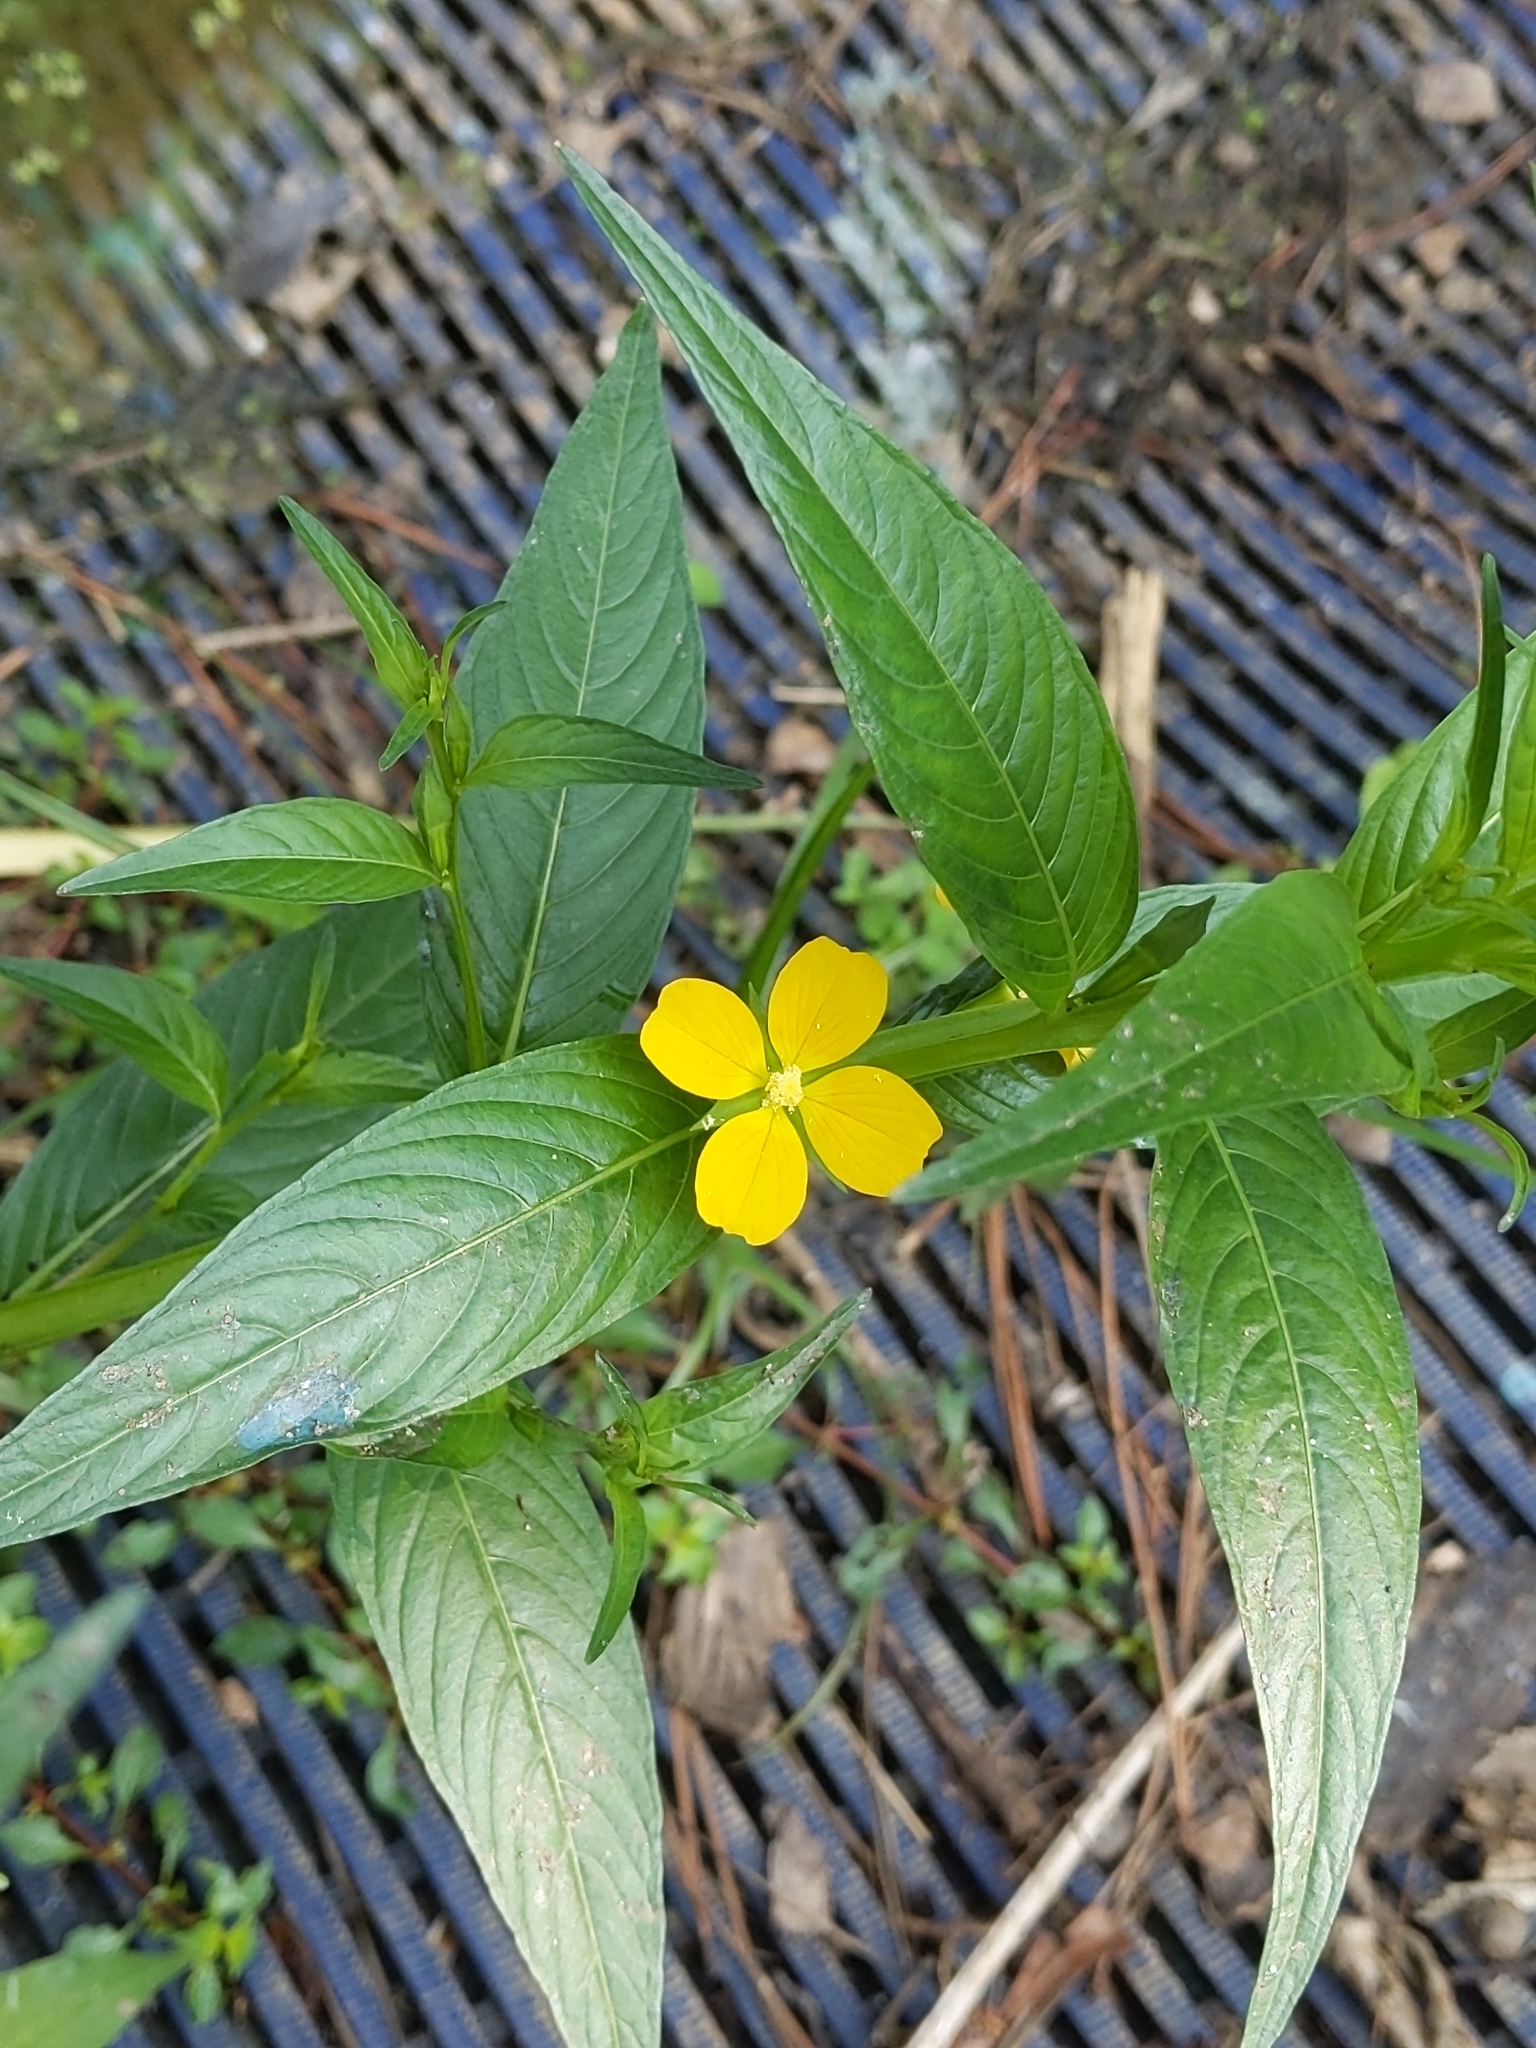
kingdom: Plantae
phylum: Tracheophyta
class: Magnoliopsida
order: Myrtales
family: Onagraceae
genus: Ludwigia
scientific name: Ludwigia decurrens
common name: Winged water-primrose
